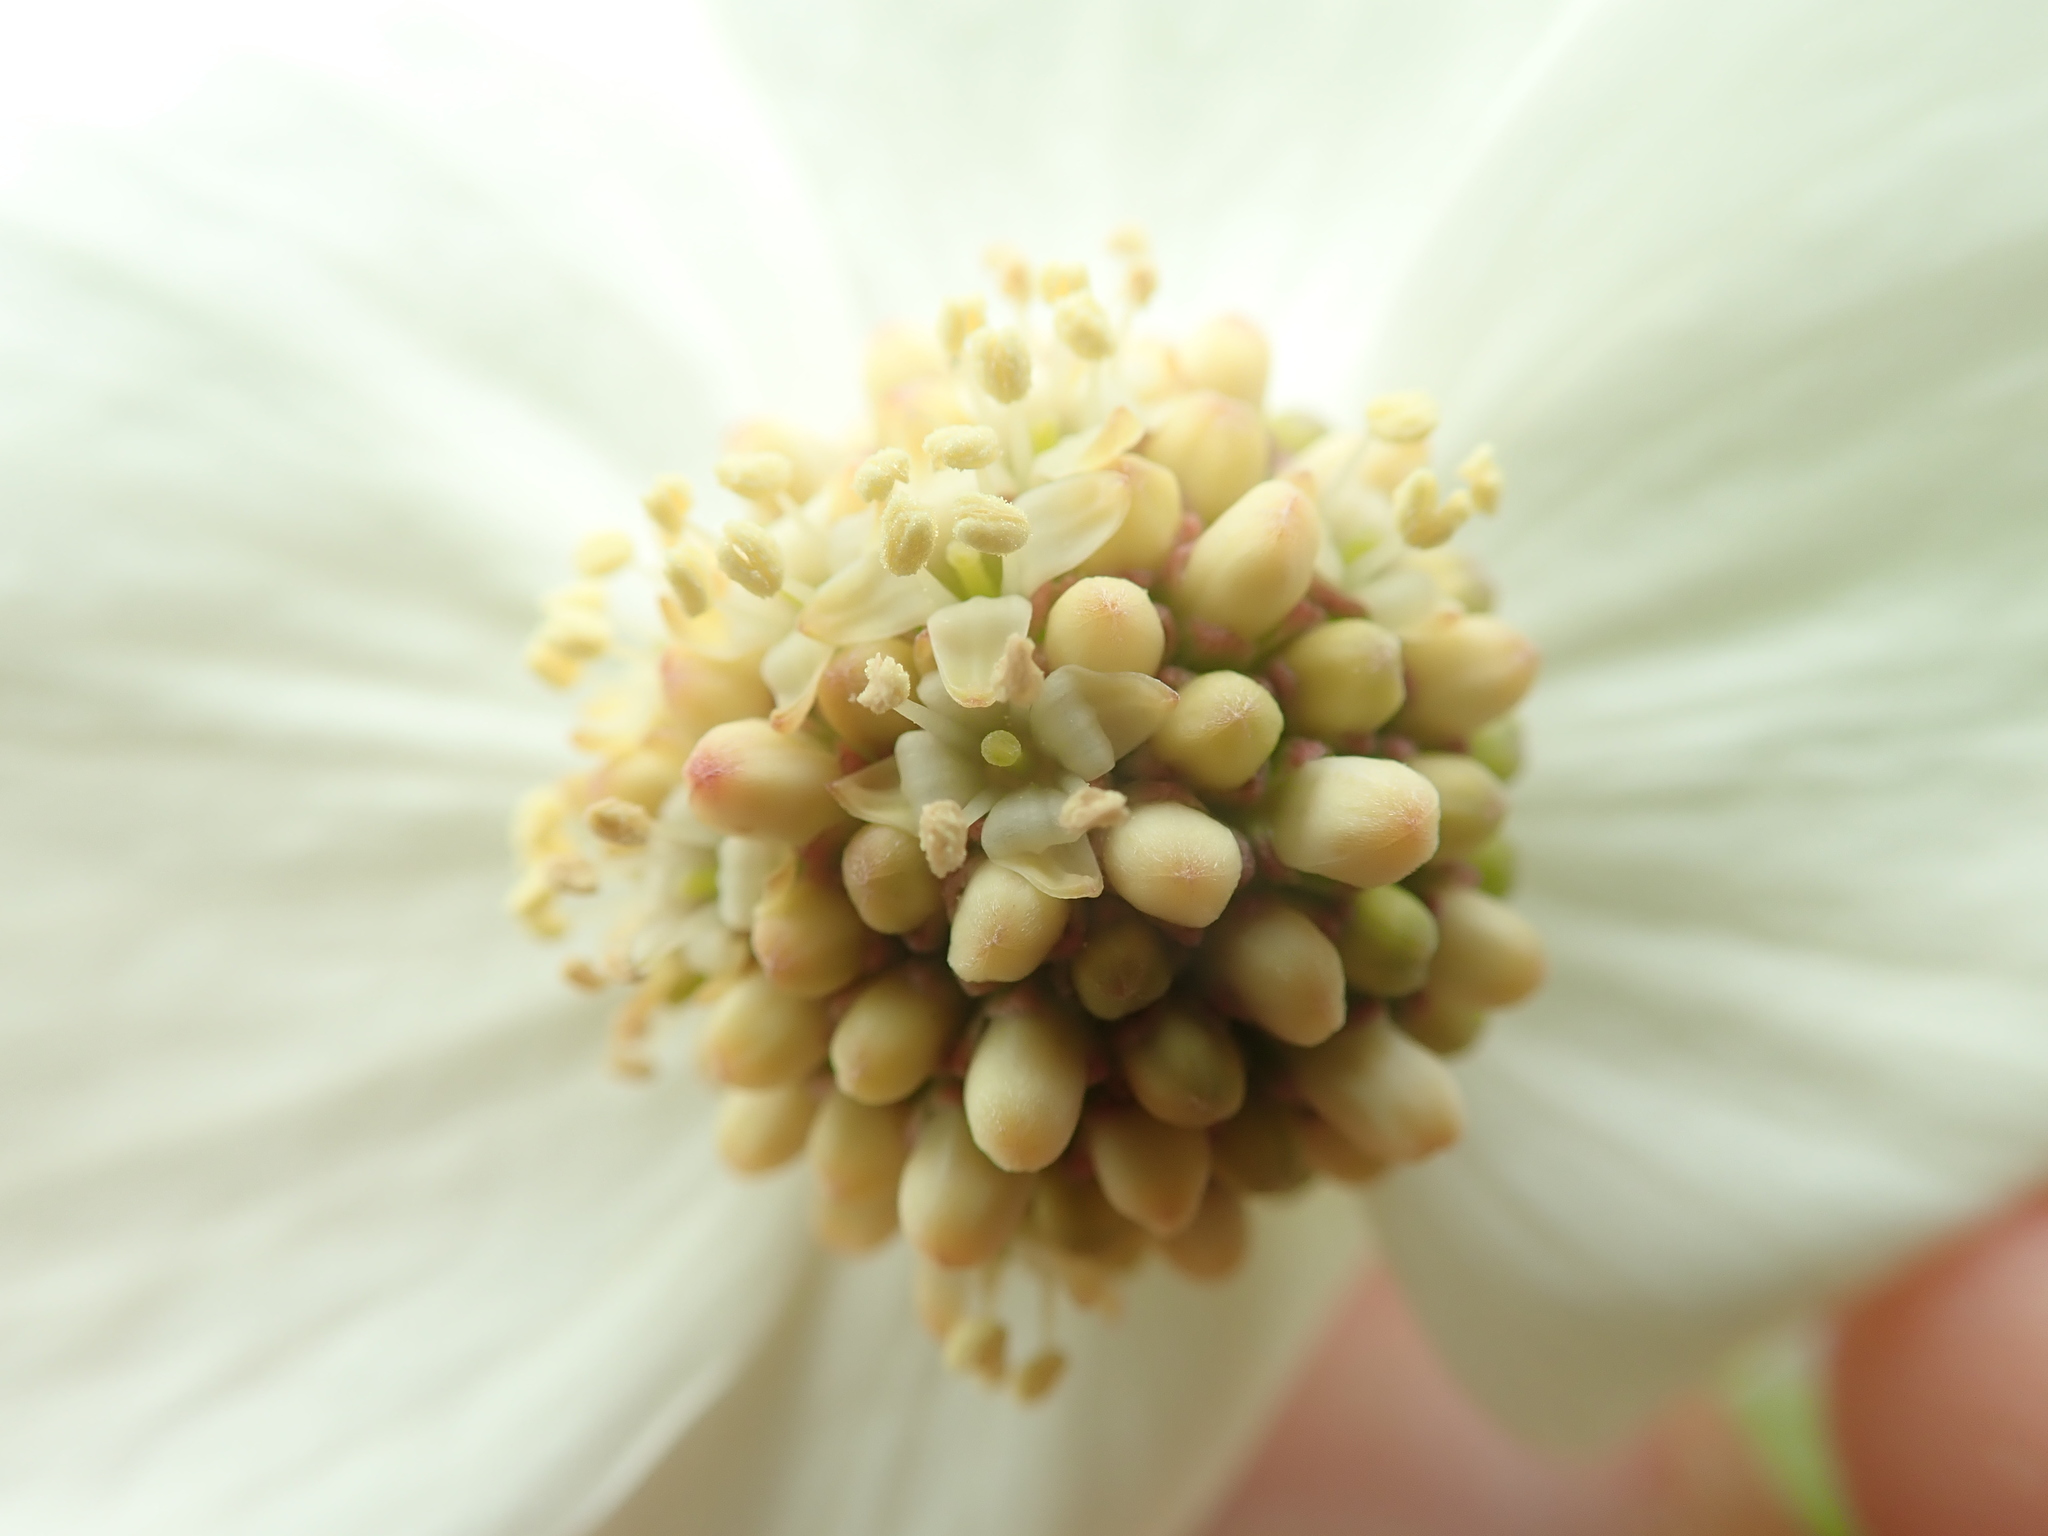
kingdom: Plantae
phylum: Tracheophyta
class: Magnoliopsida
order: Cornales
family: Cornaceae
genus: Cornus
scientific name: Cornus nuttallii
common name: Pacific dogwood
